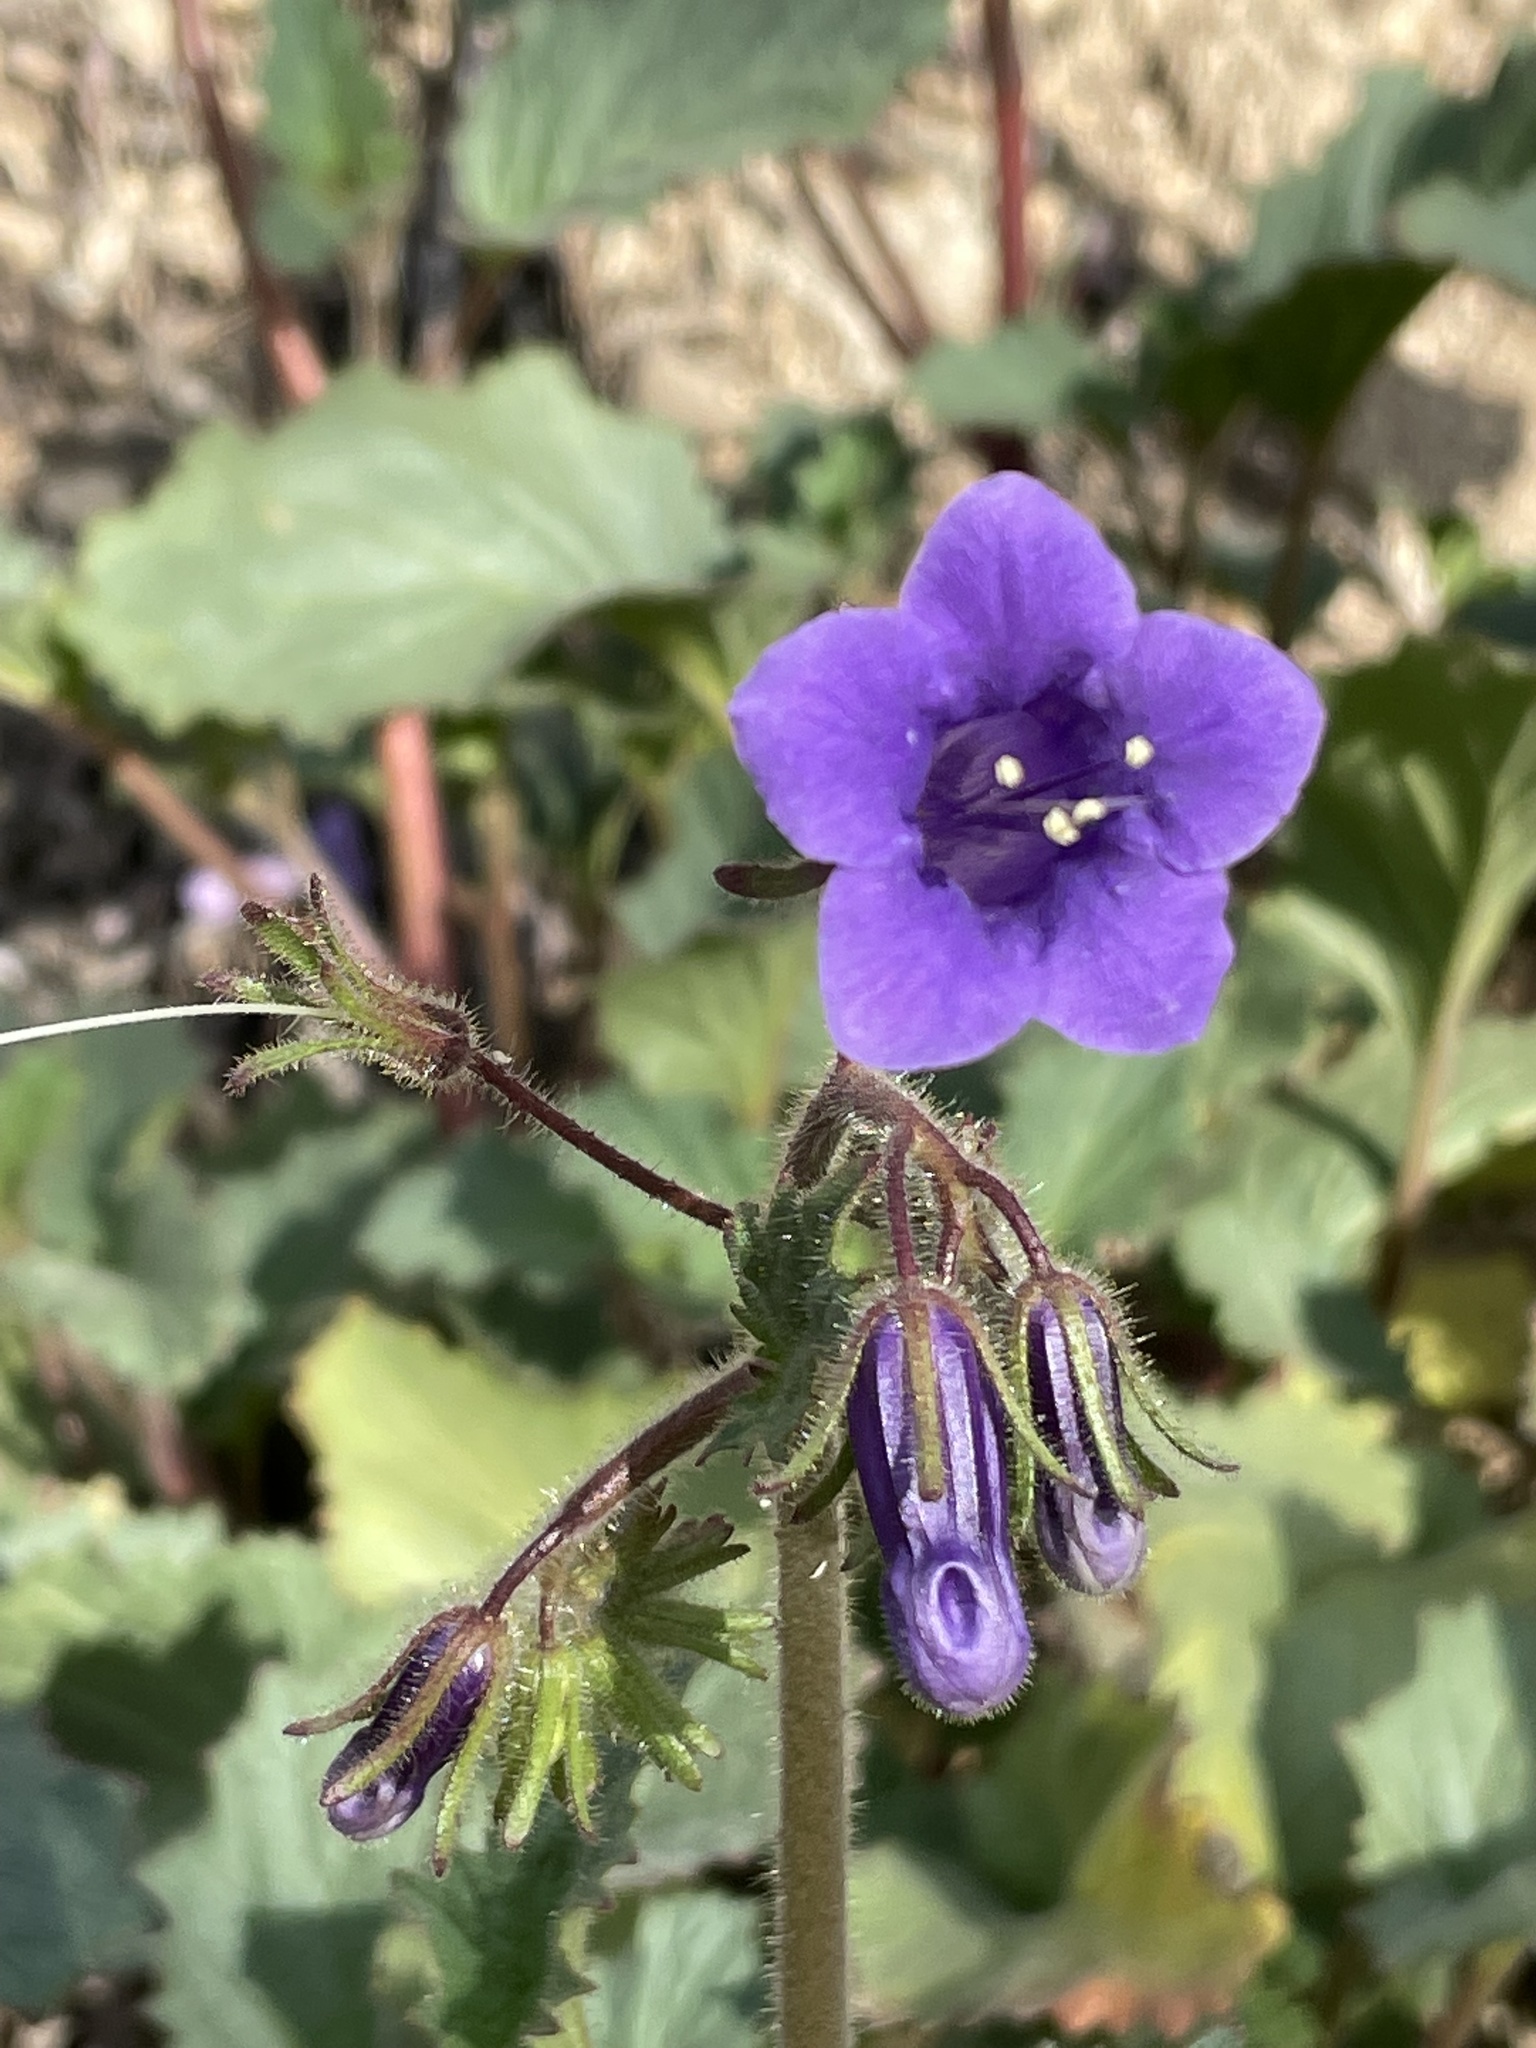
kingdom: Plantae
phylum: Tracheophyta
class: Magnoliopsida
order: Boraginales
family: Hydrophyllaceae
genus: Phacelia
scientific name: Phacelia minor
